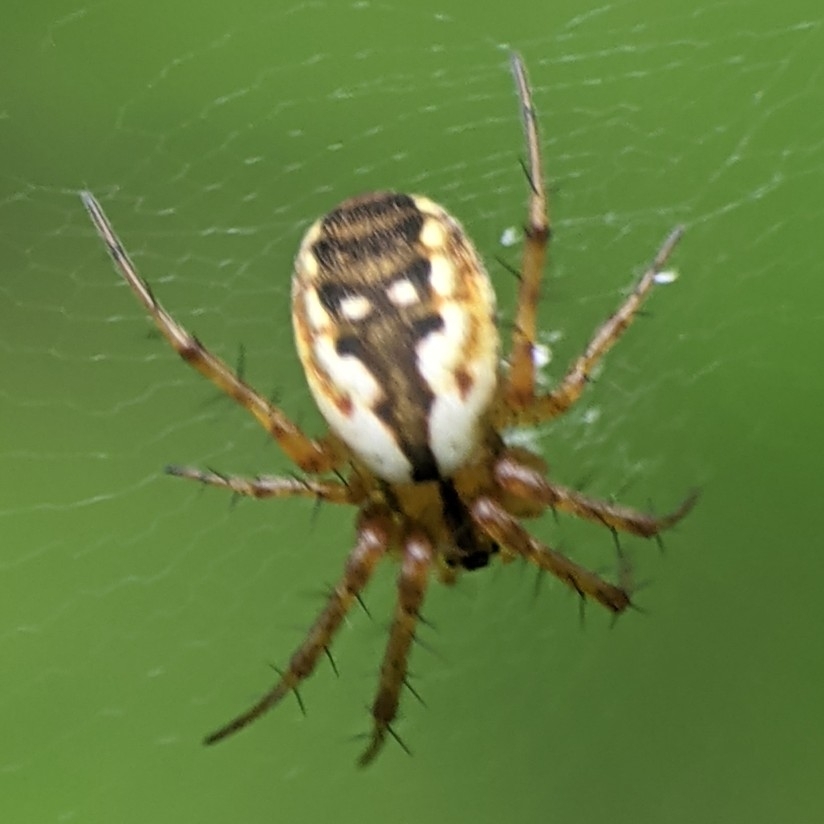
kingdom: Animalia
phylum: Arthropoda
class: Arachnida
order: Araneae
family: Araneidae
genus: Mangora
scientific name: Mangora placida
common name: Tuft-legged orbweaver
